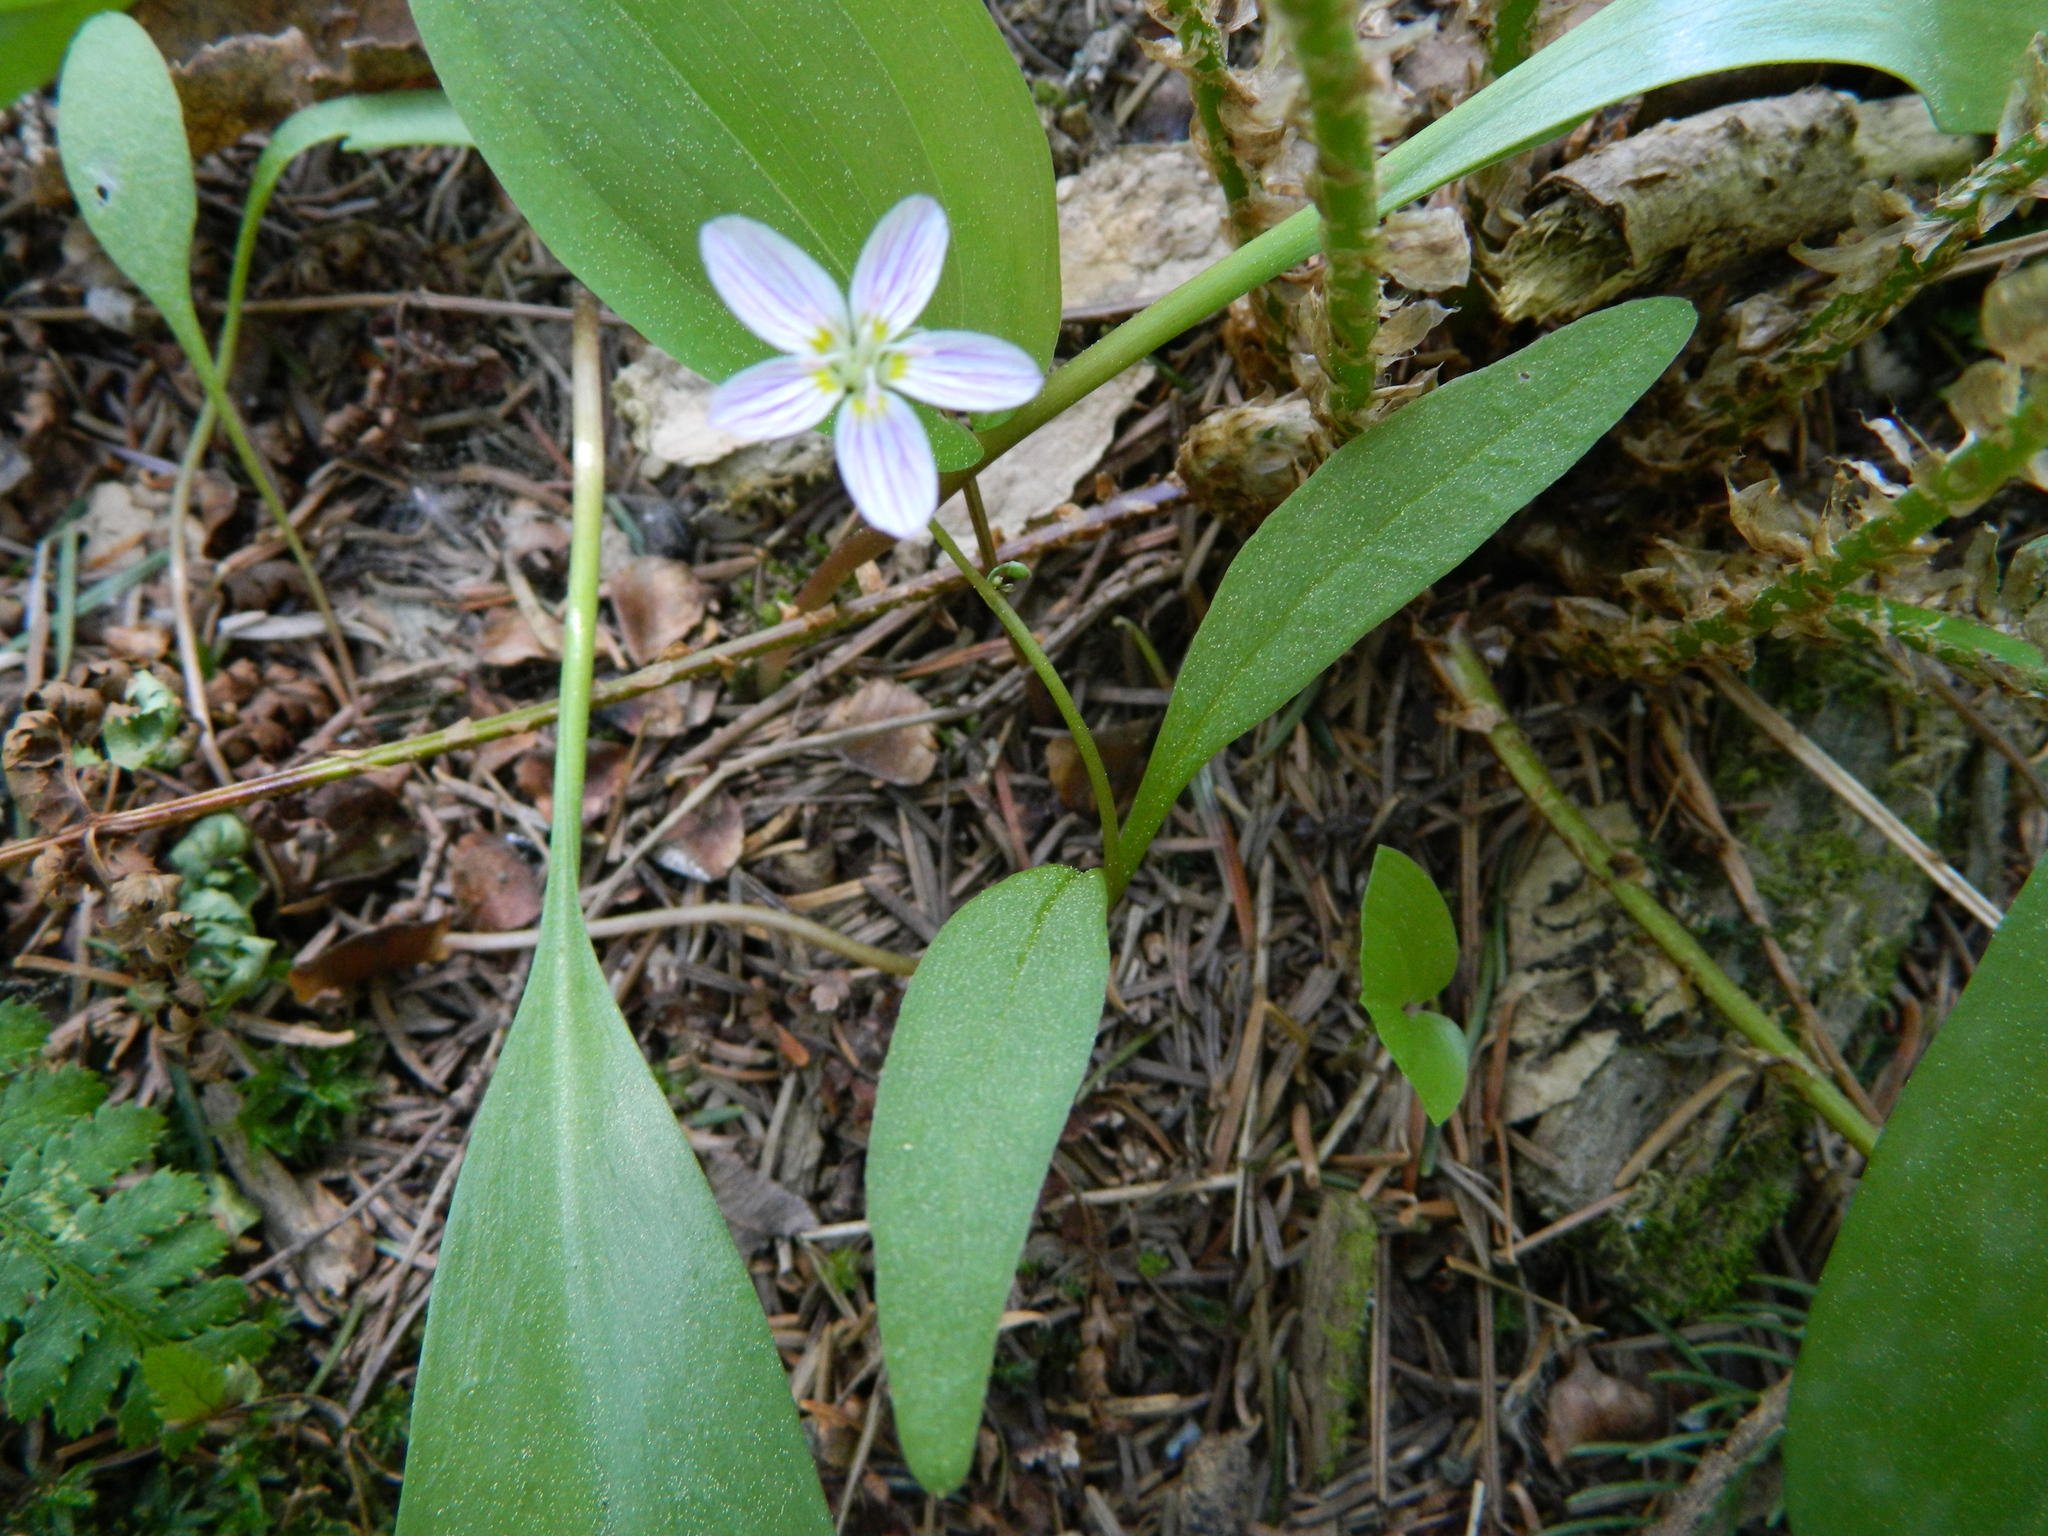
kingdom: Plantae
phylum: Tracheophyta
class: Magnoliopsida
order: Caryophyllales
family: Montiaceae
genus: Claytonia
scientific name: Claytonia caroliniana
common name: Carolina spring beauty
